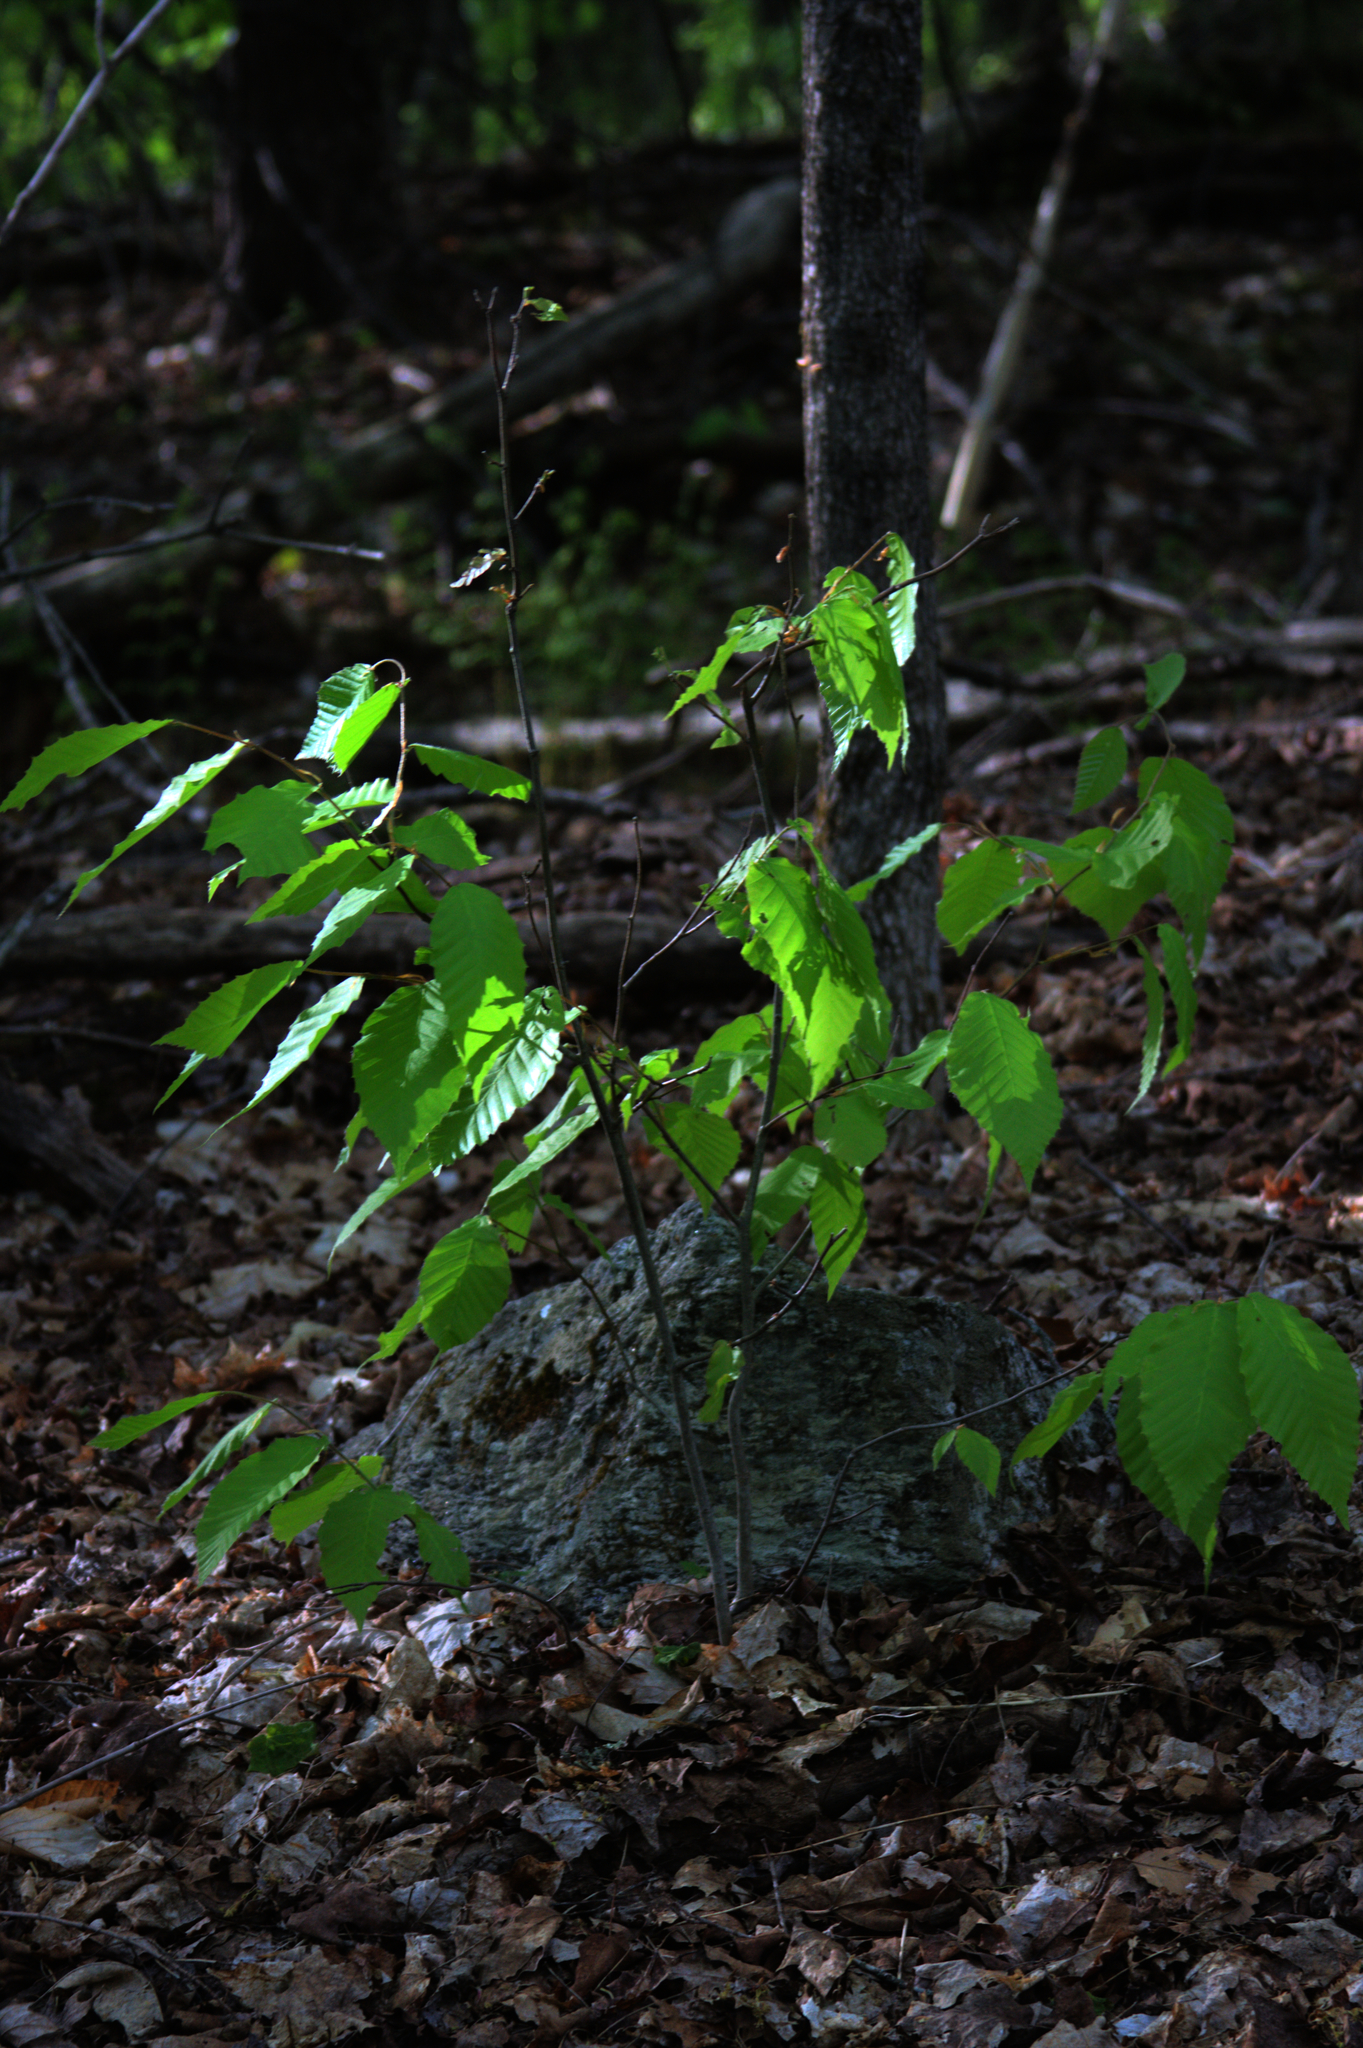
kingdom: Plantae
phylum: Tracheophyta
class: Magnoliopsida
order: Fagales
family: Fagaceae
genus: Fagus
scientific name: Fagus grandifolia
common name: American beech
